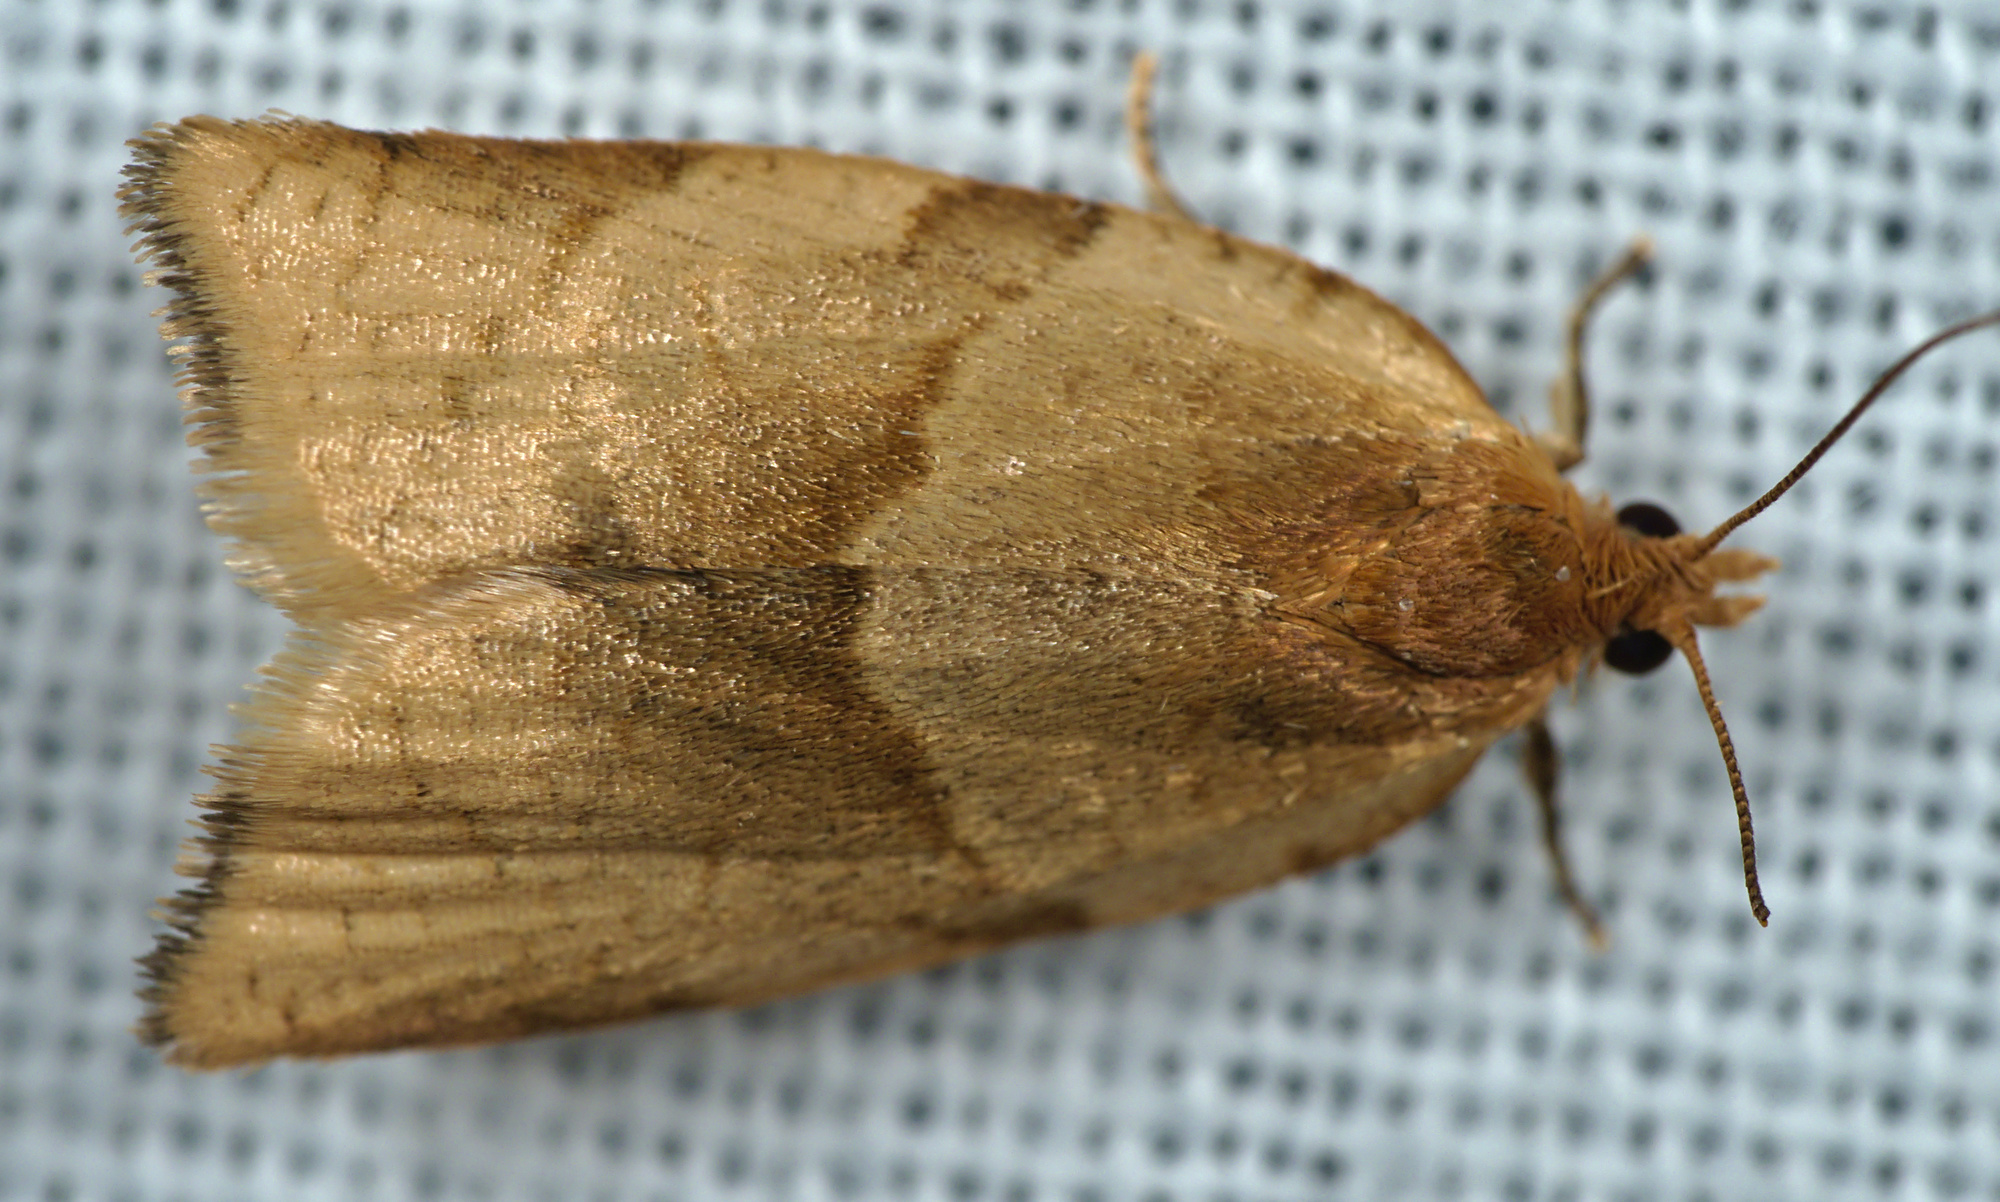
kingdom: Animalia
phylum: Arthropoda
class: Insecta
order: Lepidoptera
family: Tortricidae
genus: Clepsis
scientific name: Clepsis rurinana
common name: Pale twist
